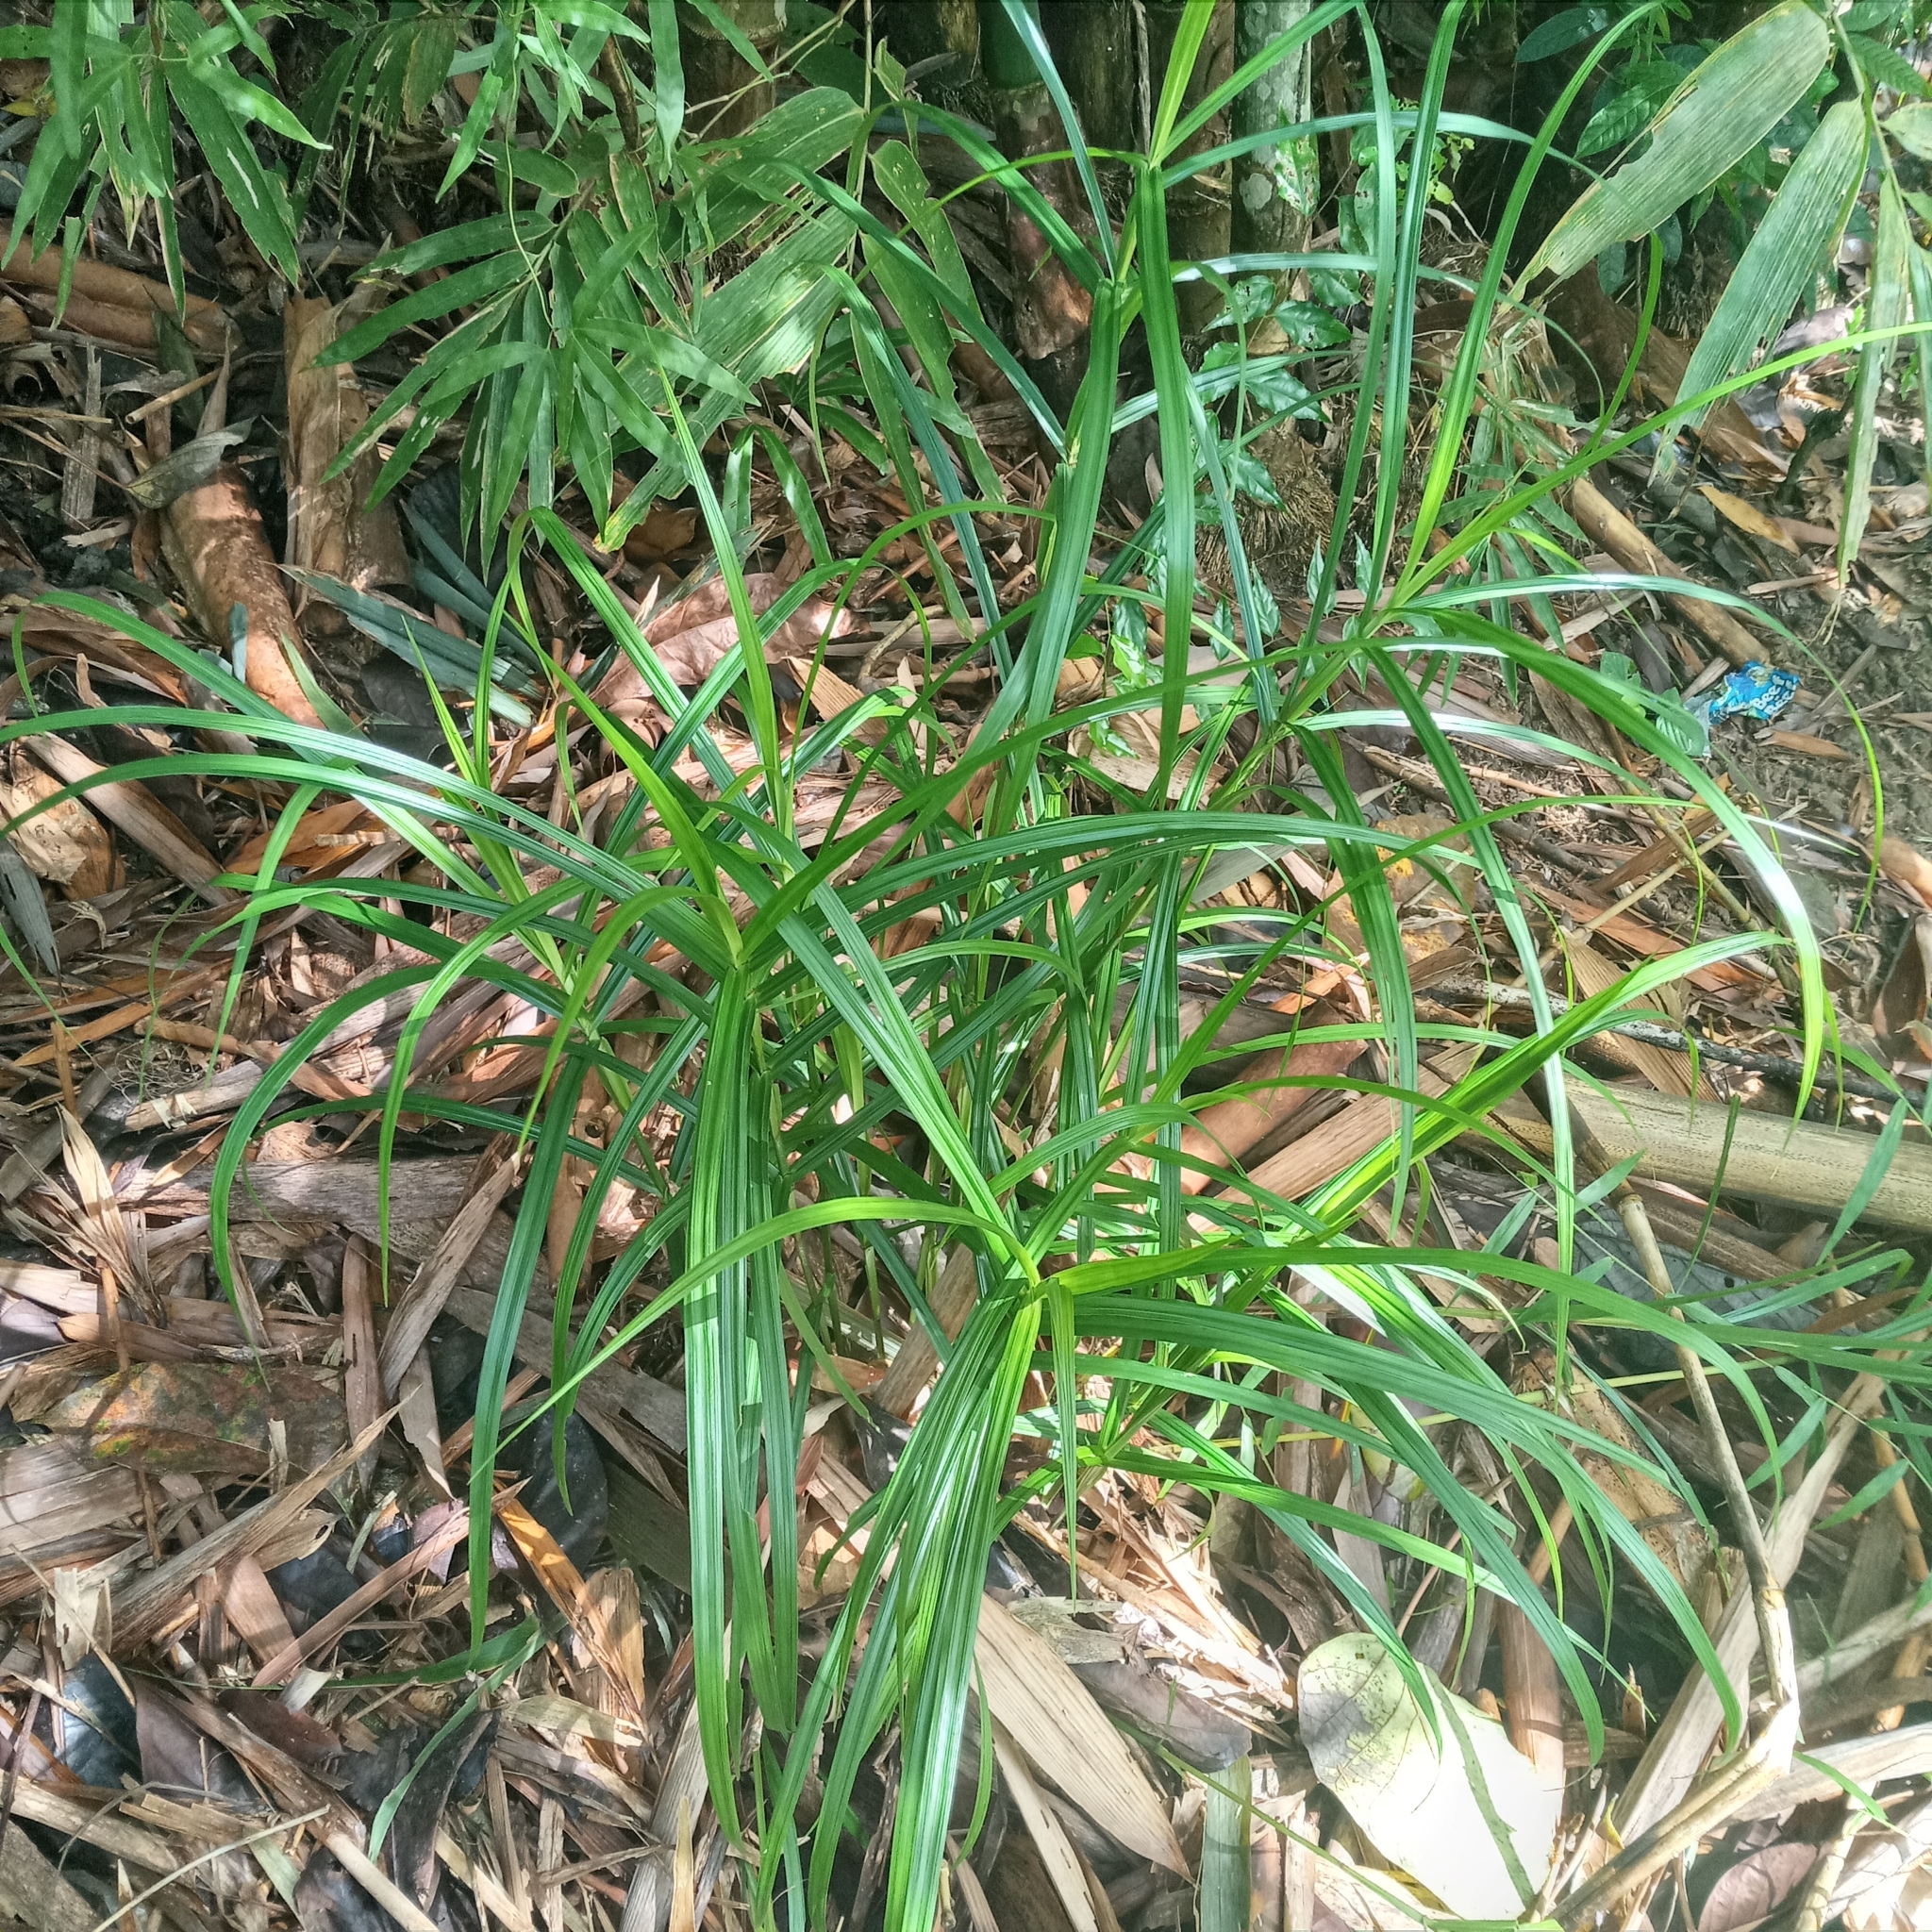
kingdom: Plantae
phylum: Tracheophyta
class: Liliopsida
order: Poales
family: Cyperaceae
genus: Scleria
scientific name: Scleria terrestris
